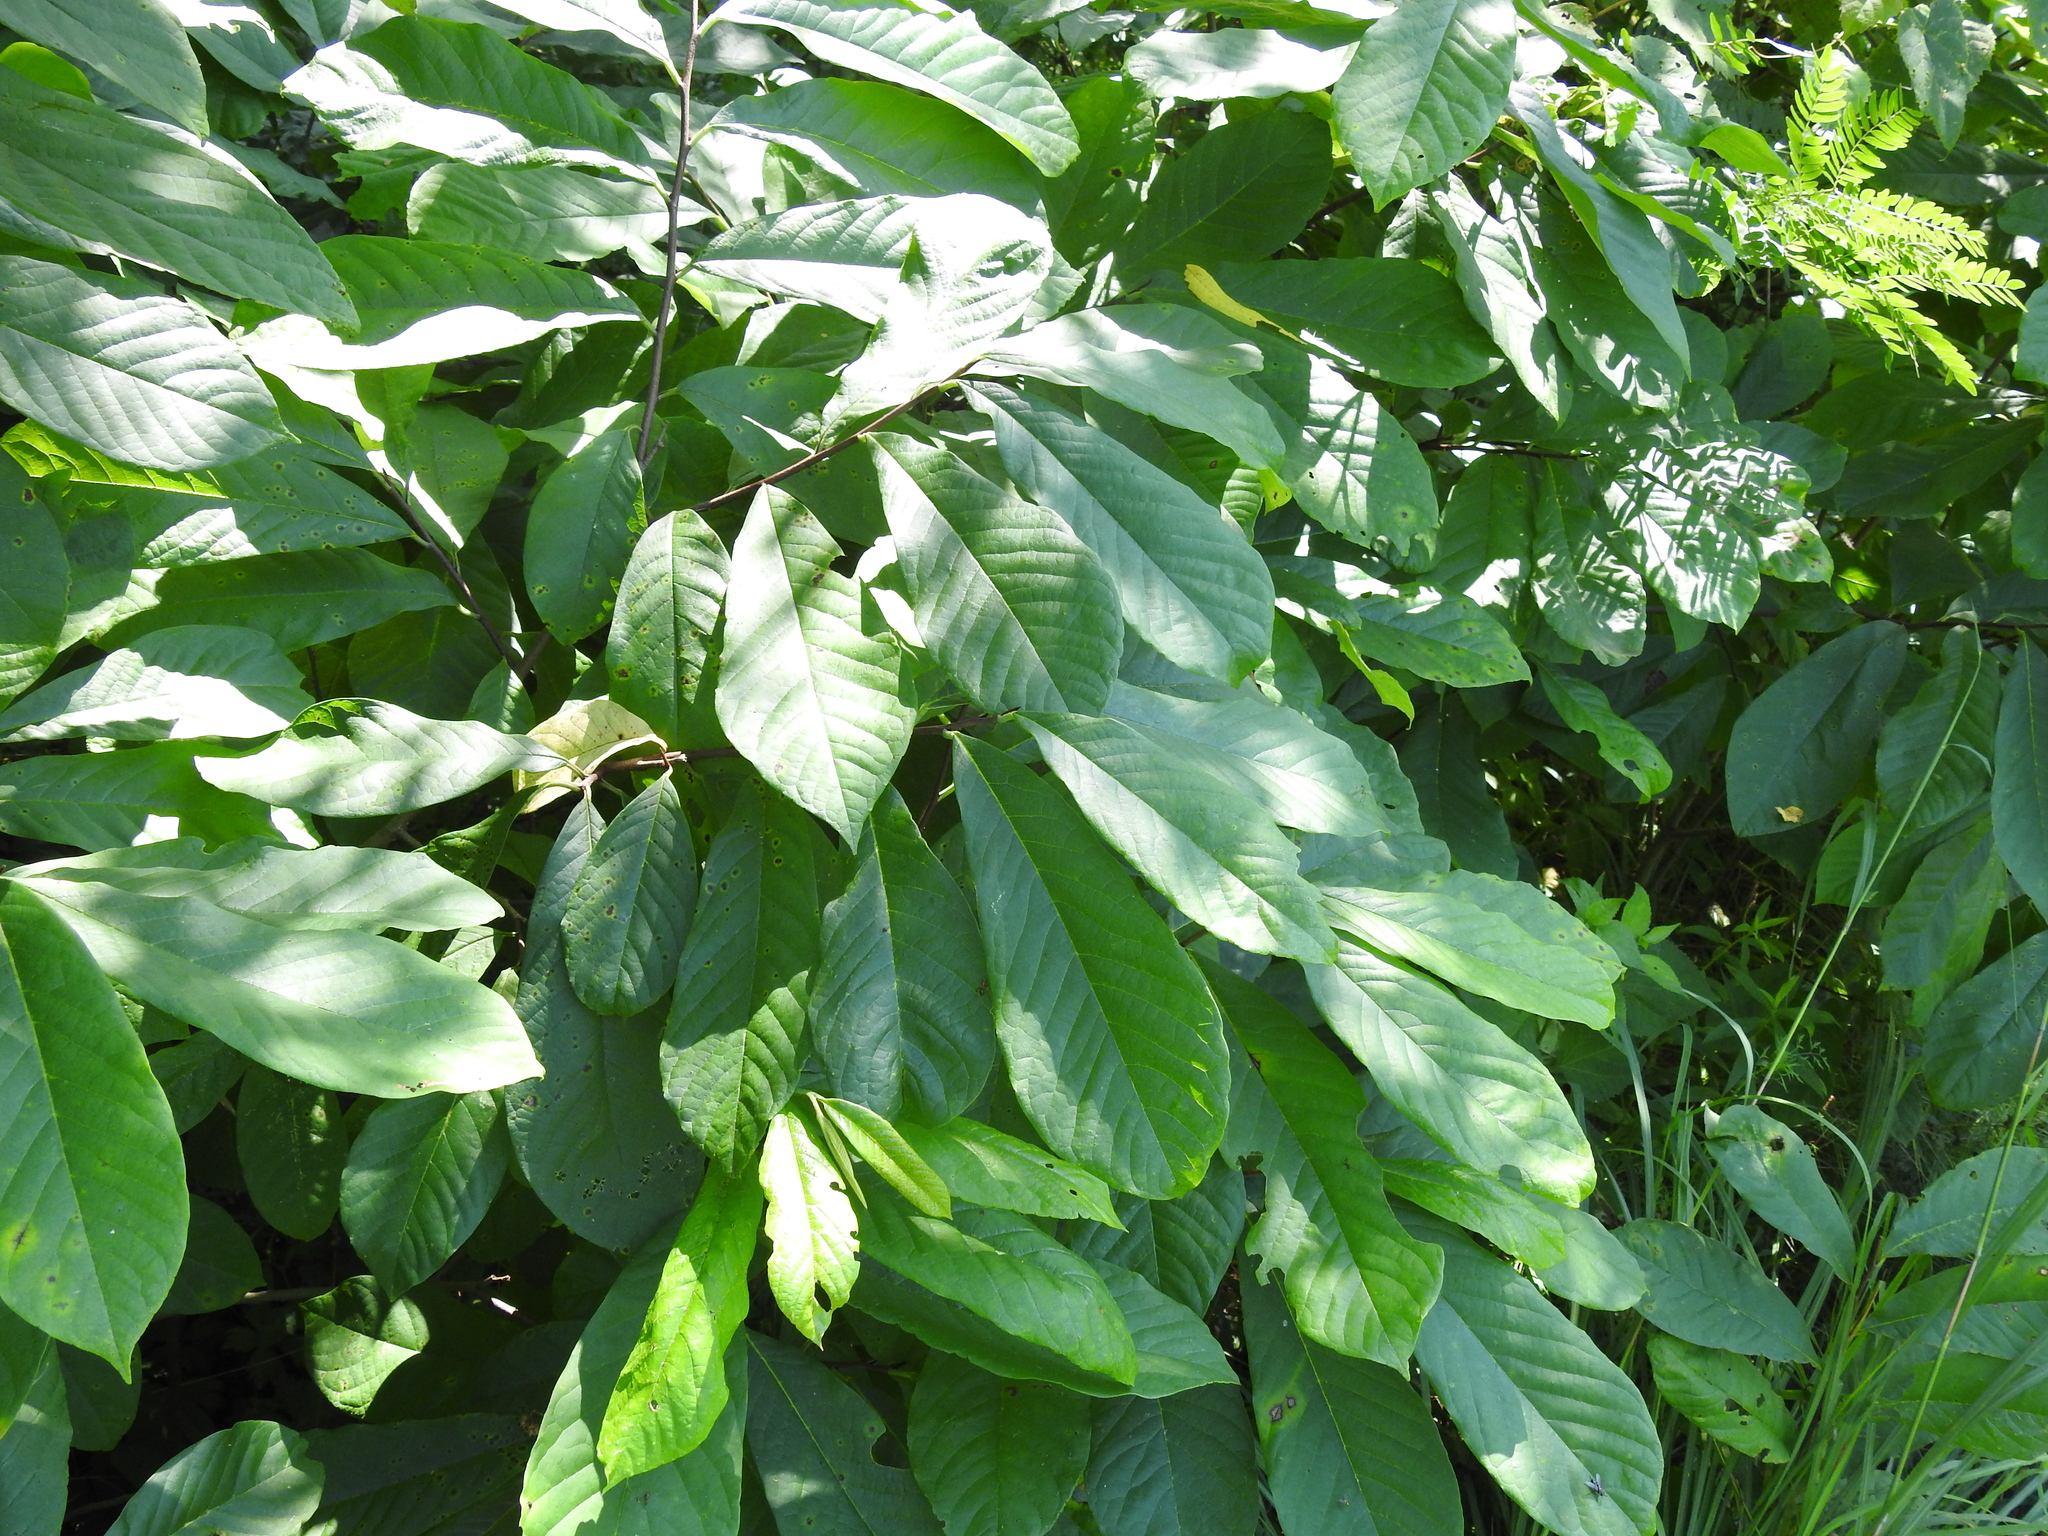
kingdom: Plantae
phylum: Tracheophyta
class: Magnoliopsida
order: Magnoliales
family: Annonaceae
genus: Asimina
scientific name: Asimina triloba
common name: Dog-banana
